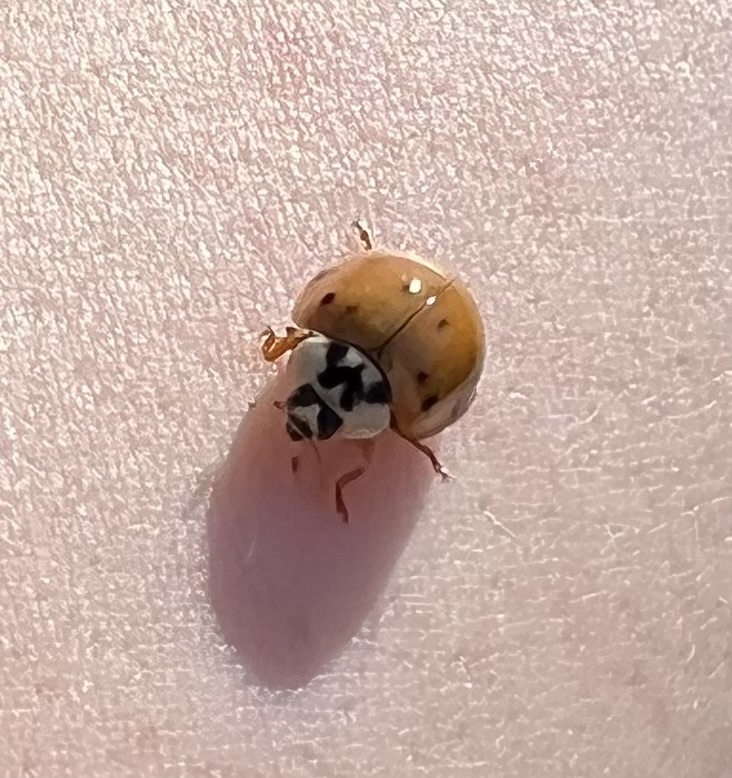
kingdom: Animalia
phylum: Arthropoda
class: Insecta
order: Coleoptera
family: Coccinellidae
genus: Harmonia
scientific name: Harmonia axyridis
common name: Harlequin ladybird
